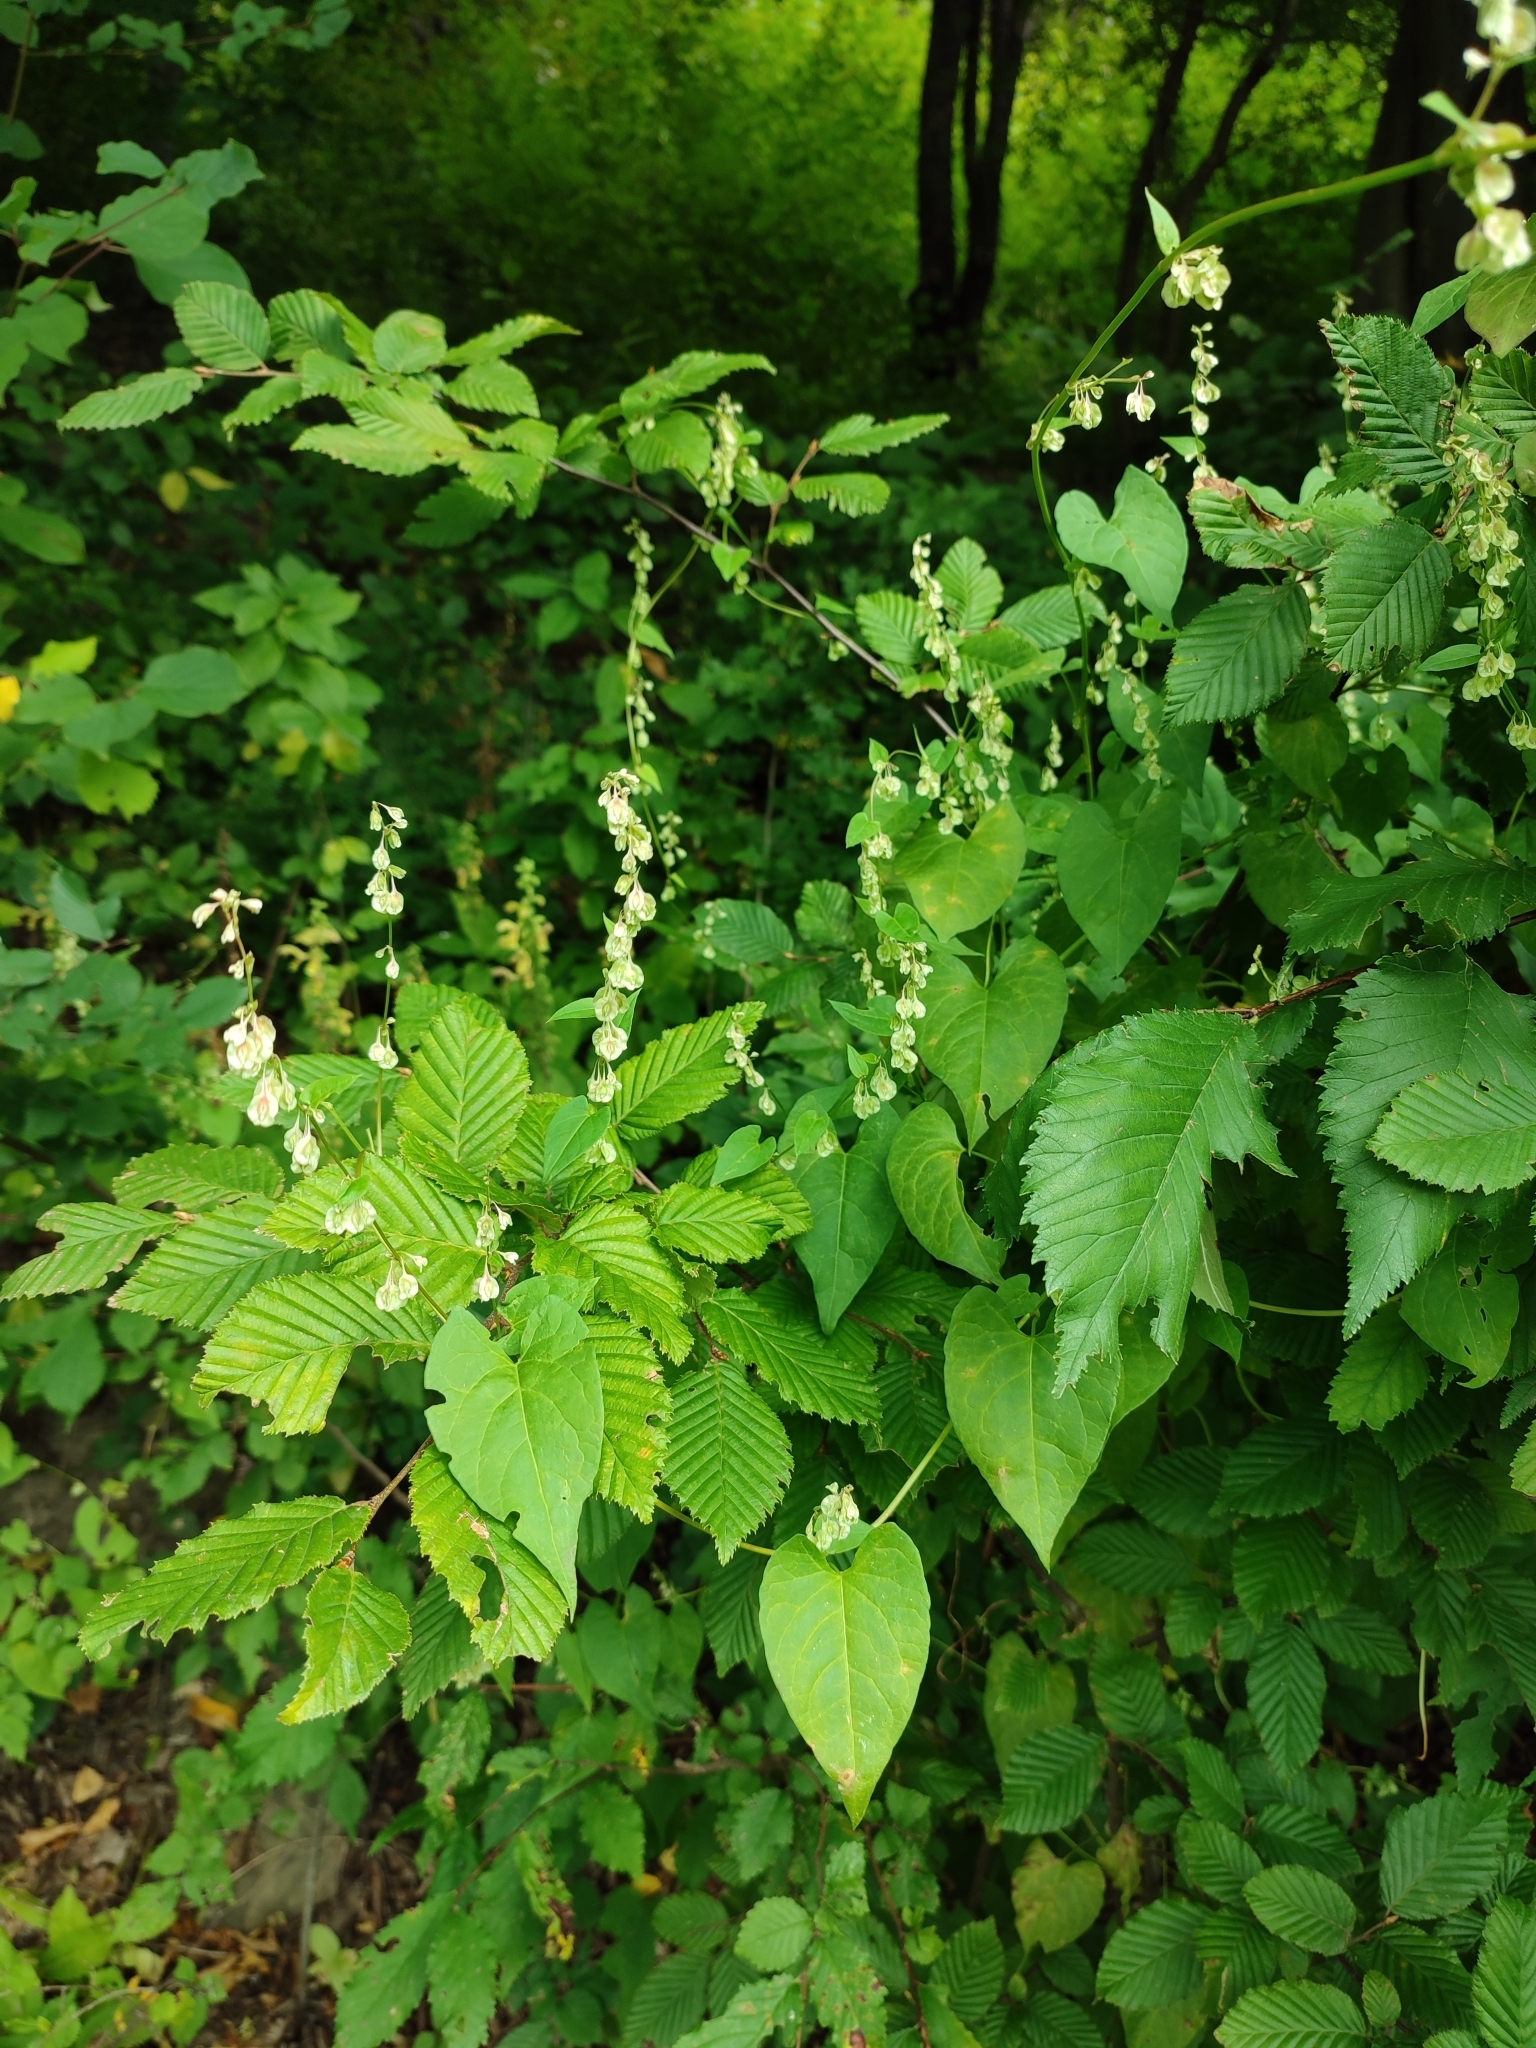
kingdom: Plantae
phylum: Tracheophyta
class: Magnoliopsida
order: Caryophyllales
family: Polygonaceae
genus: Fallopia
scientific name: Fallopia dumetorum
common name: Copse-bindweed
